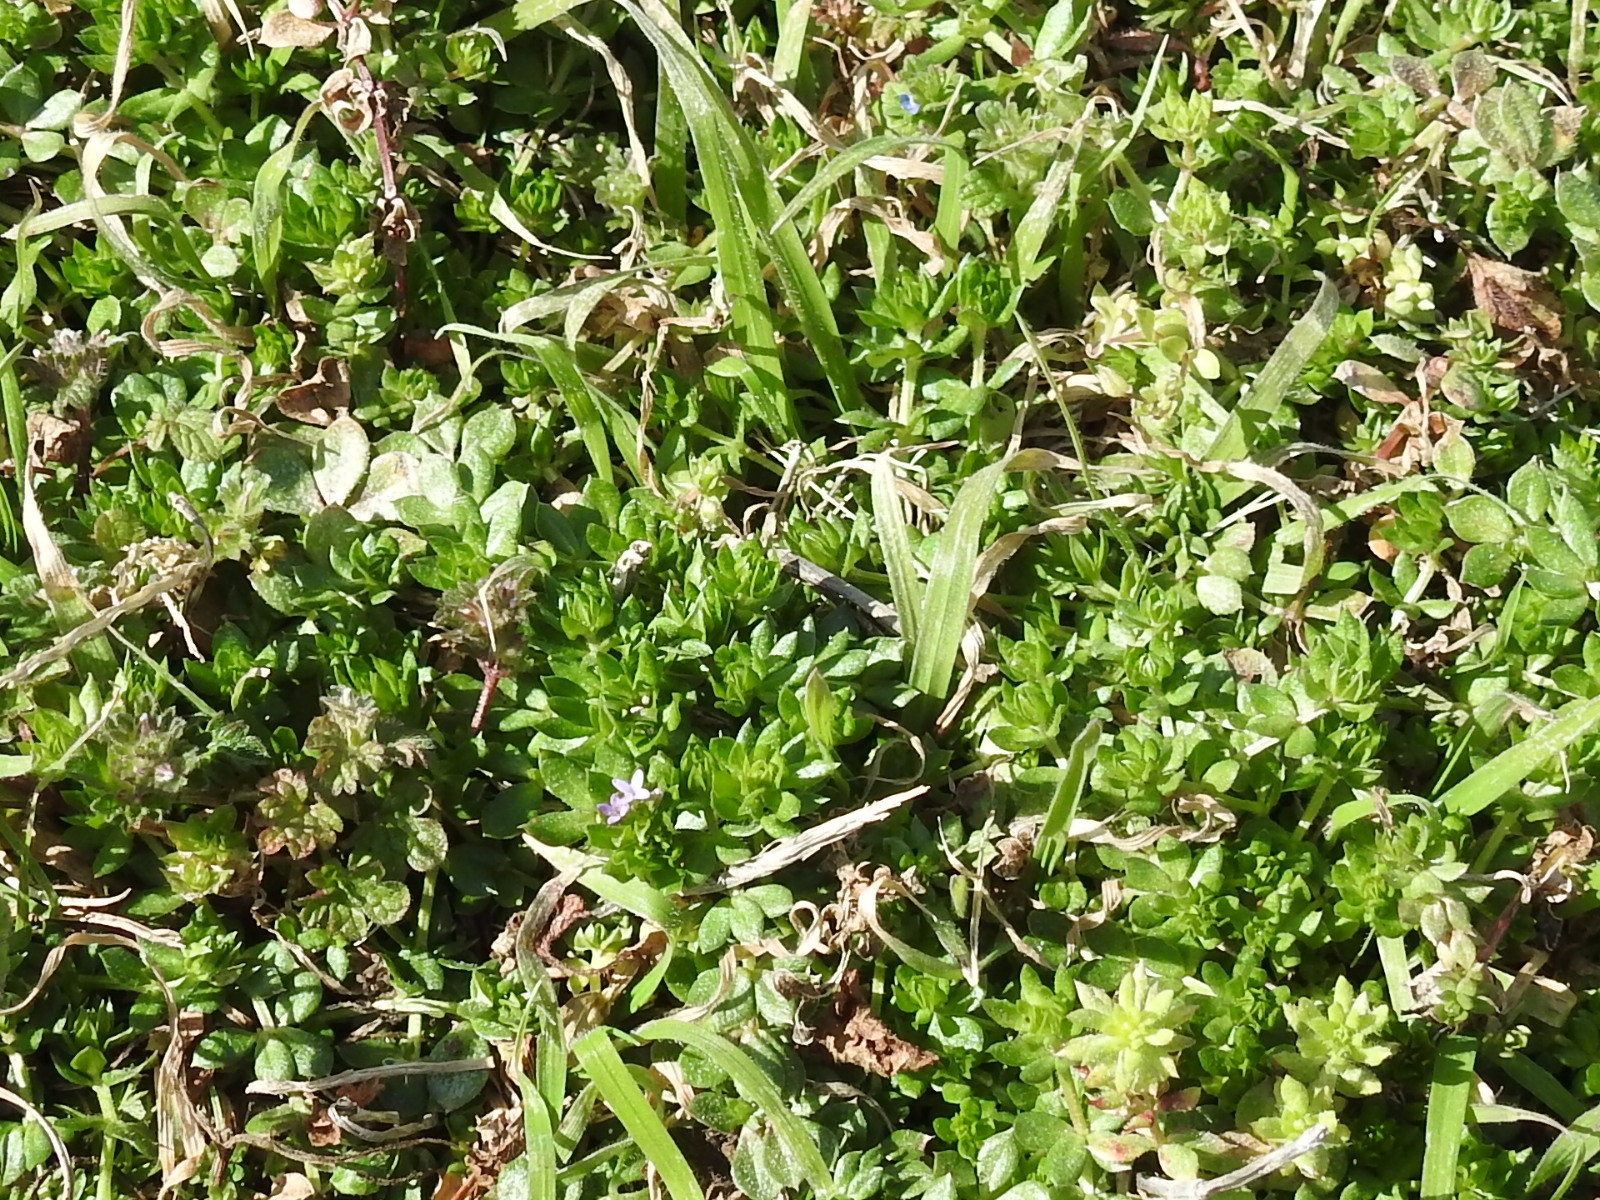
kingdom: Plantae
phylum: Tracheophyta
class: Magnoliopsida
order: Gentianales
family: Rubiaceae
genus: Sherardia
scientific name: Sherardia arvensis
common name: Field madder
